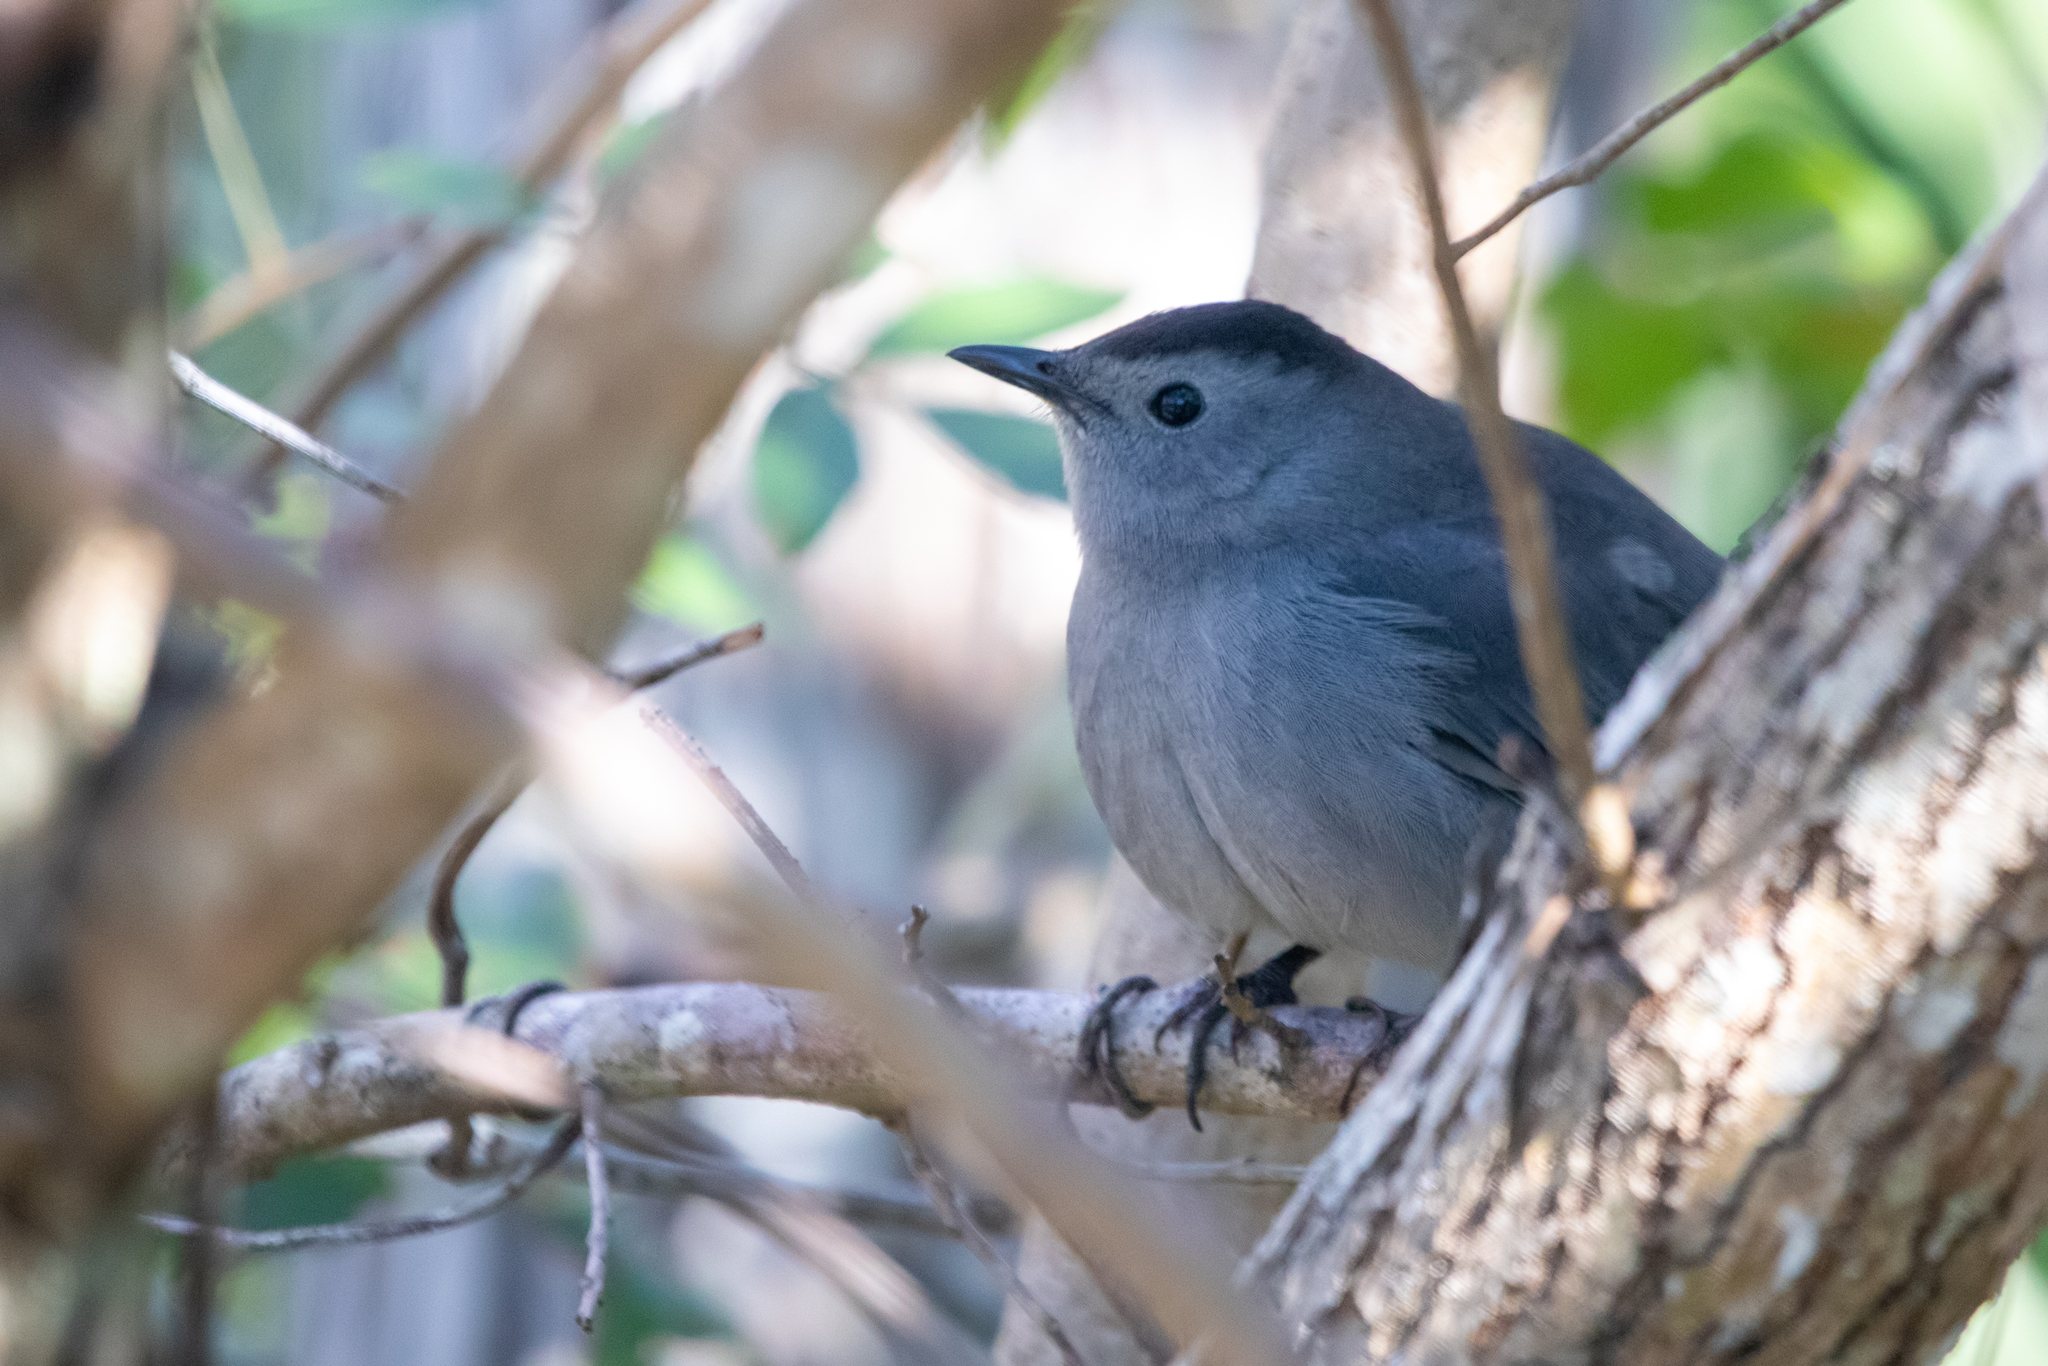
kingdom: Animalia
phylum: Chordata
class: Aves
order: Passeriformes
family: Mimidae
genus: Dumetella
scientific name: Dumetella carolinensis
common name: Gray catbird
